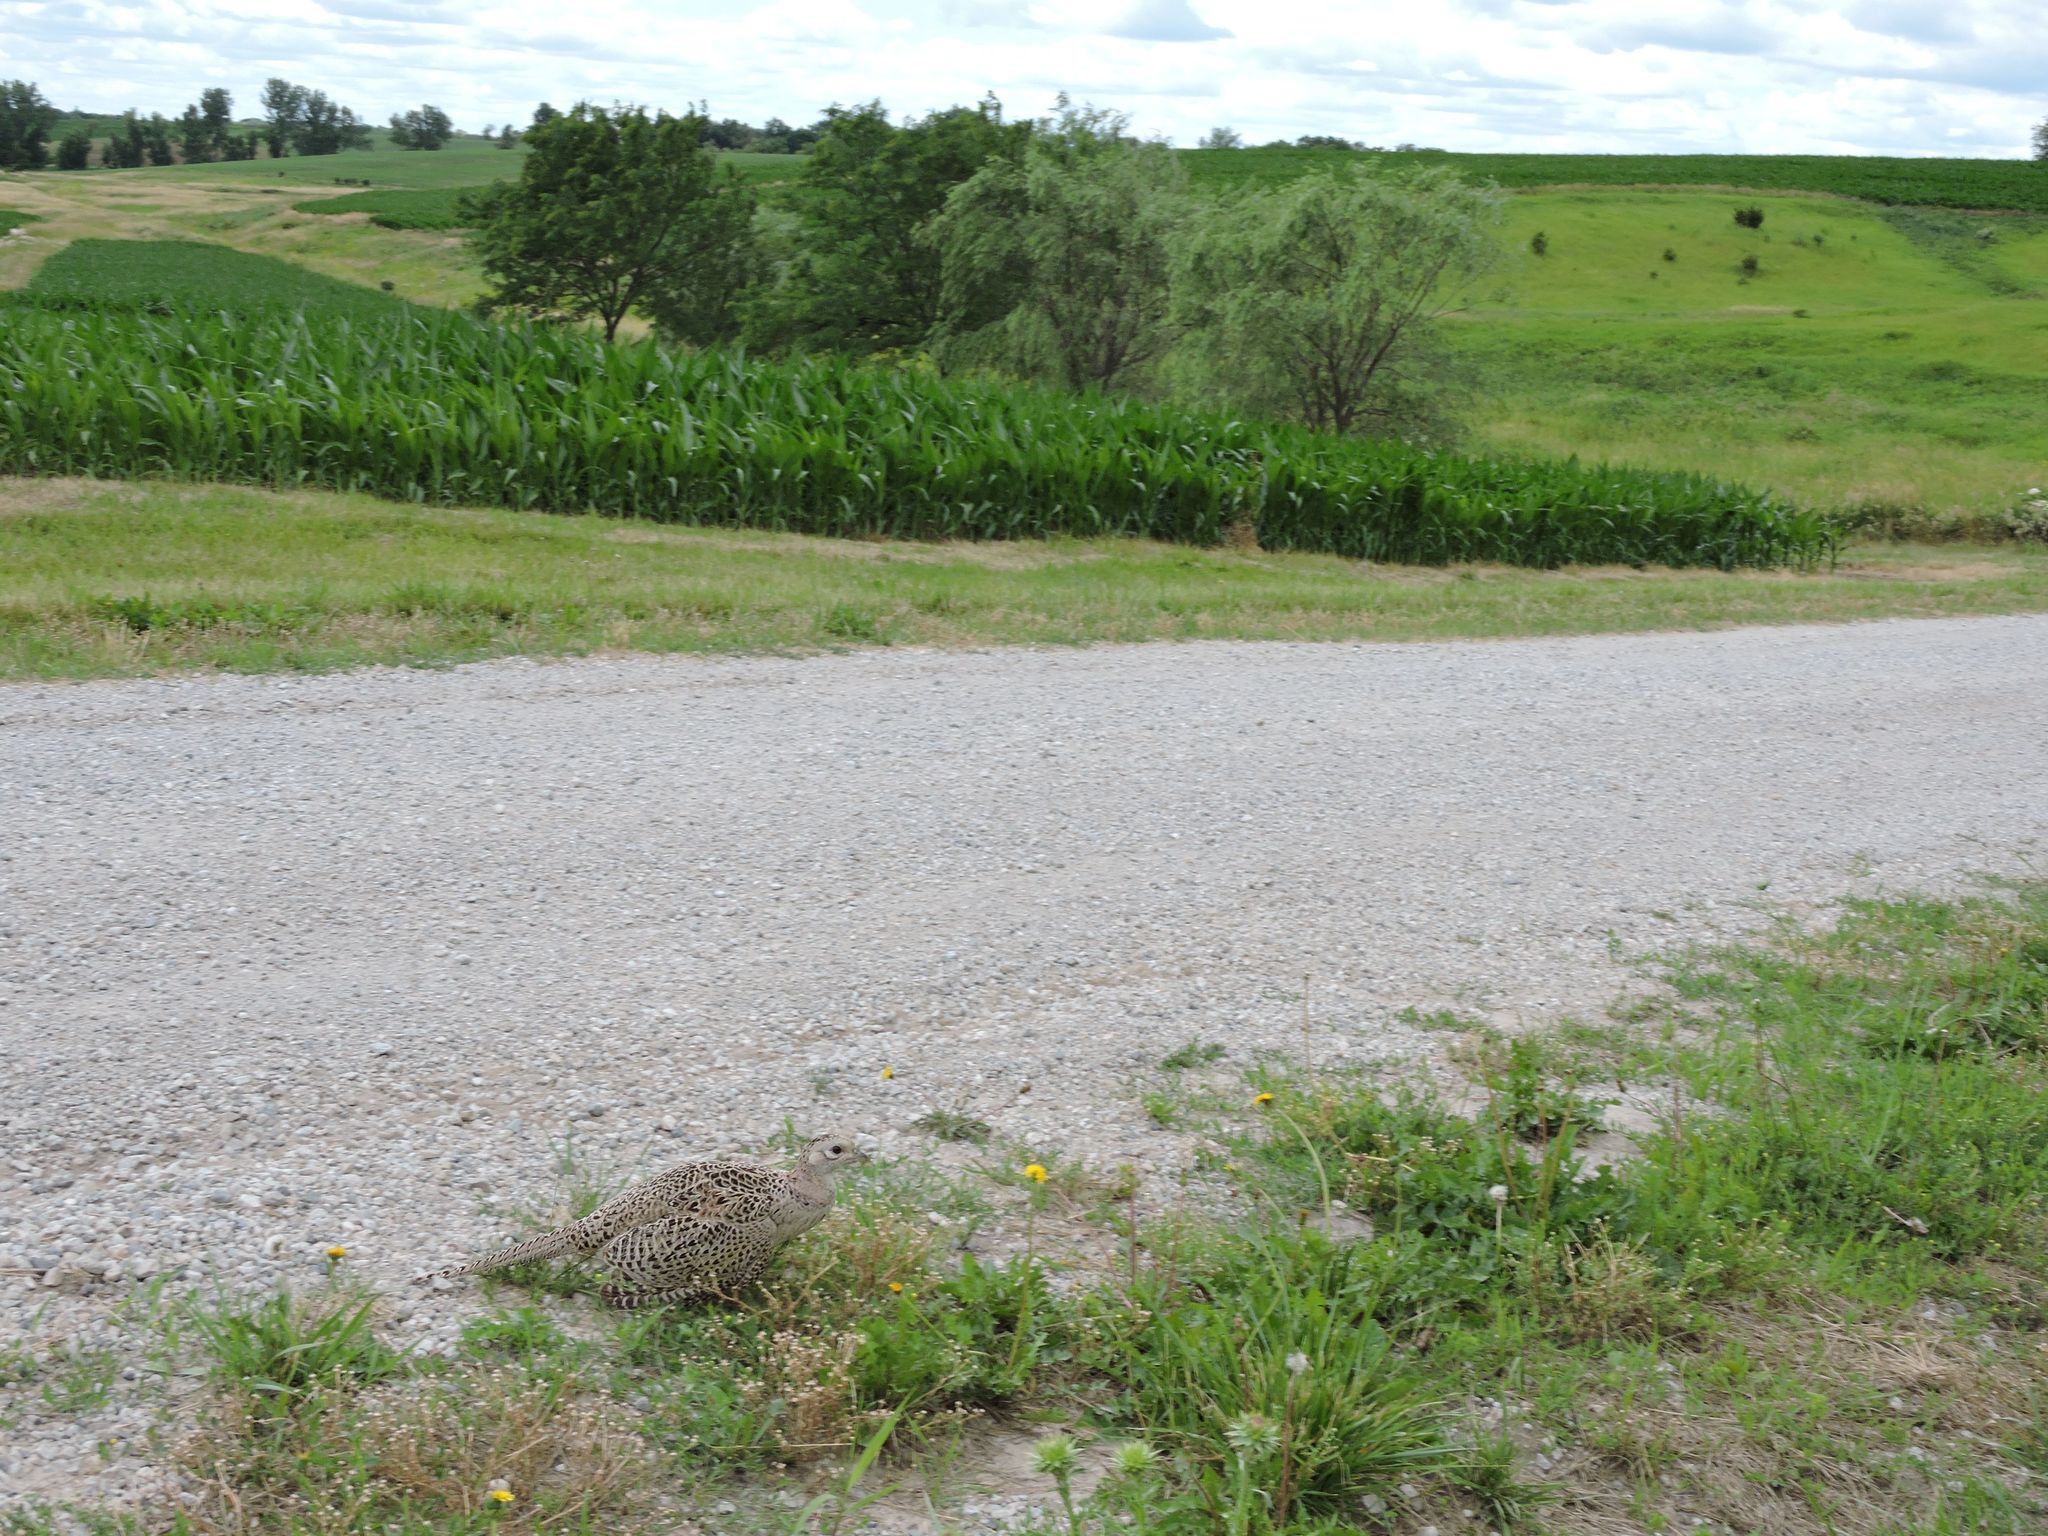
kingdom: Animalia
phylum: Chordata
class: Aves
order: Galliformes
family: Phasianidae
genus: Phasianus
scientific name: Phasianus colchicus
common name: Common pheasant
